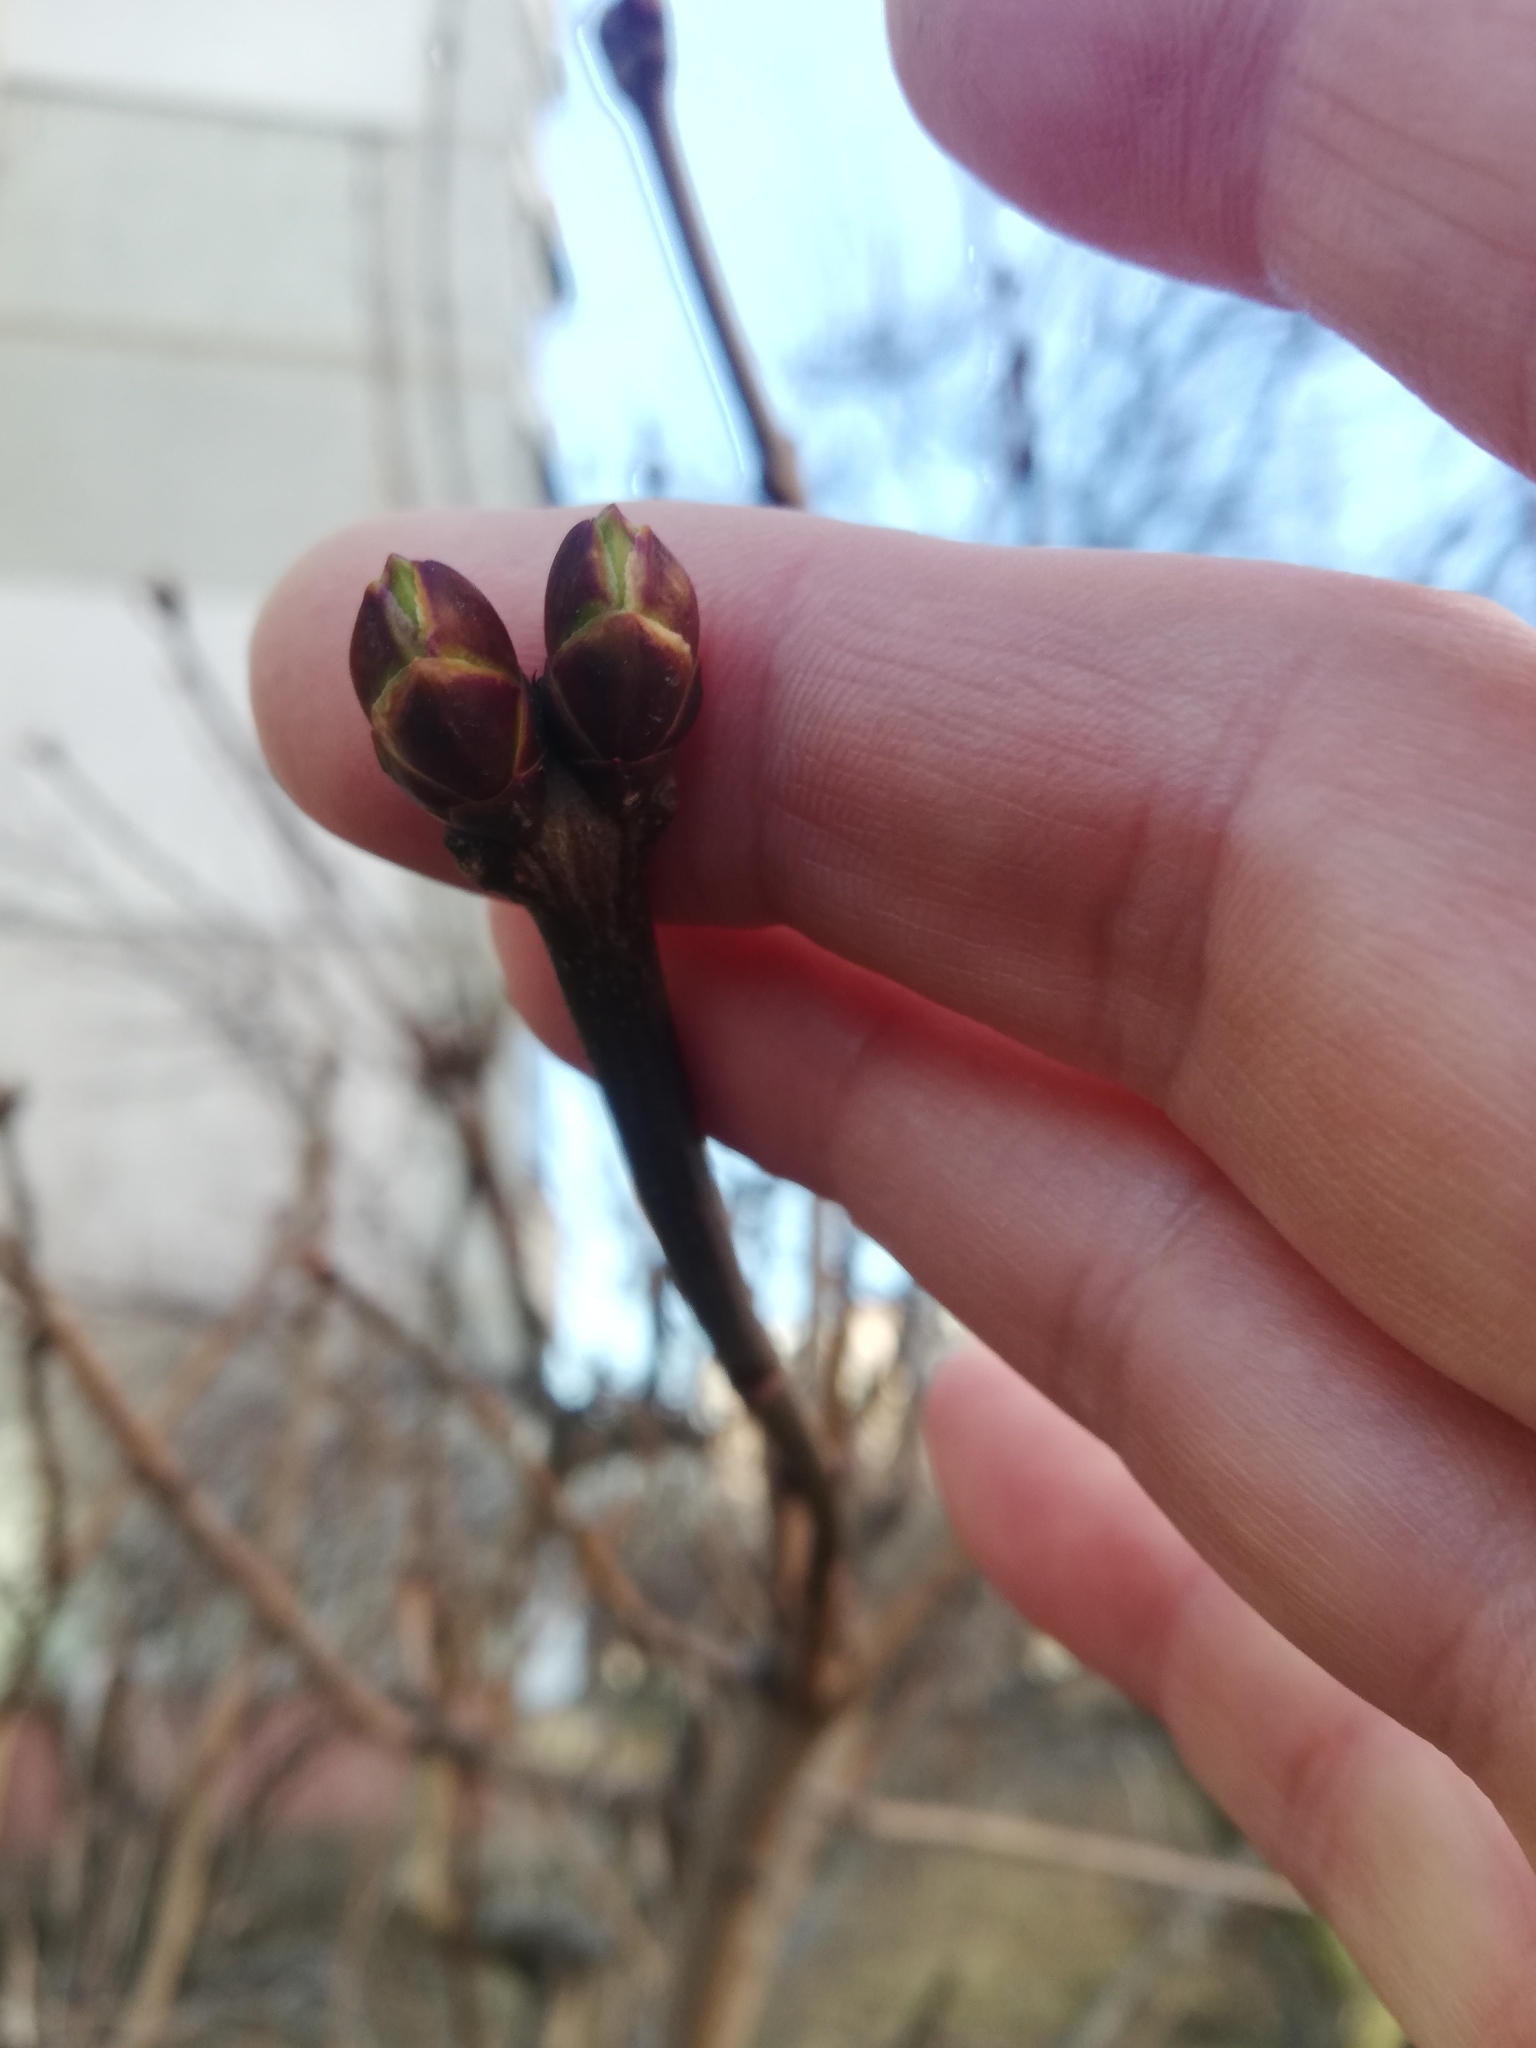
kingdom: Plantae
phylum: Tracheophyta
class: Magnoliopsida
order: Sapindales
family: Sapindaceae
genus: Acer
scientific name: Acer negundo
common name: Ashleaf maple
